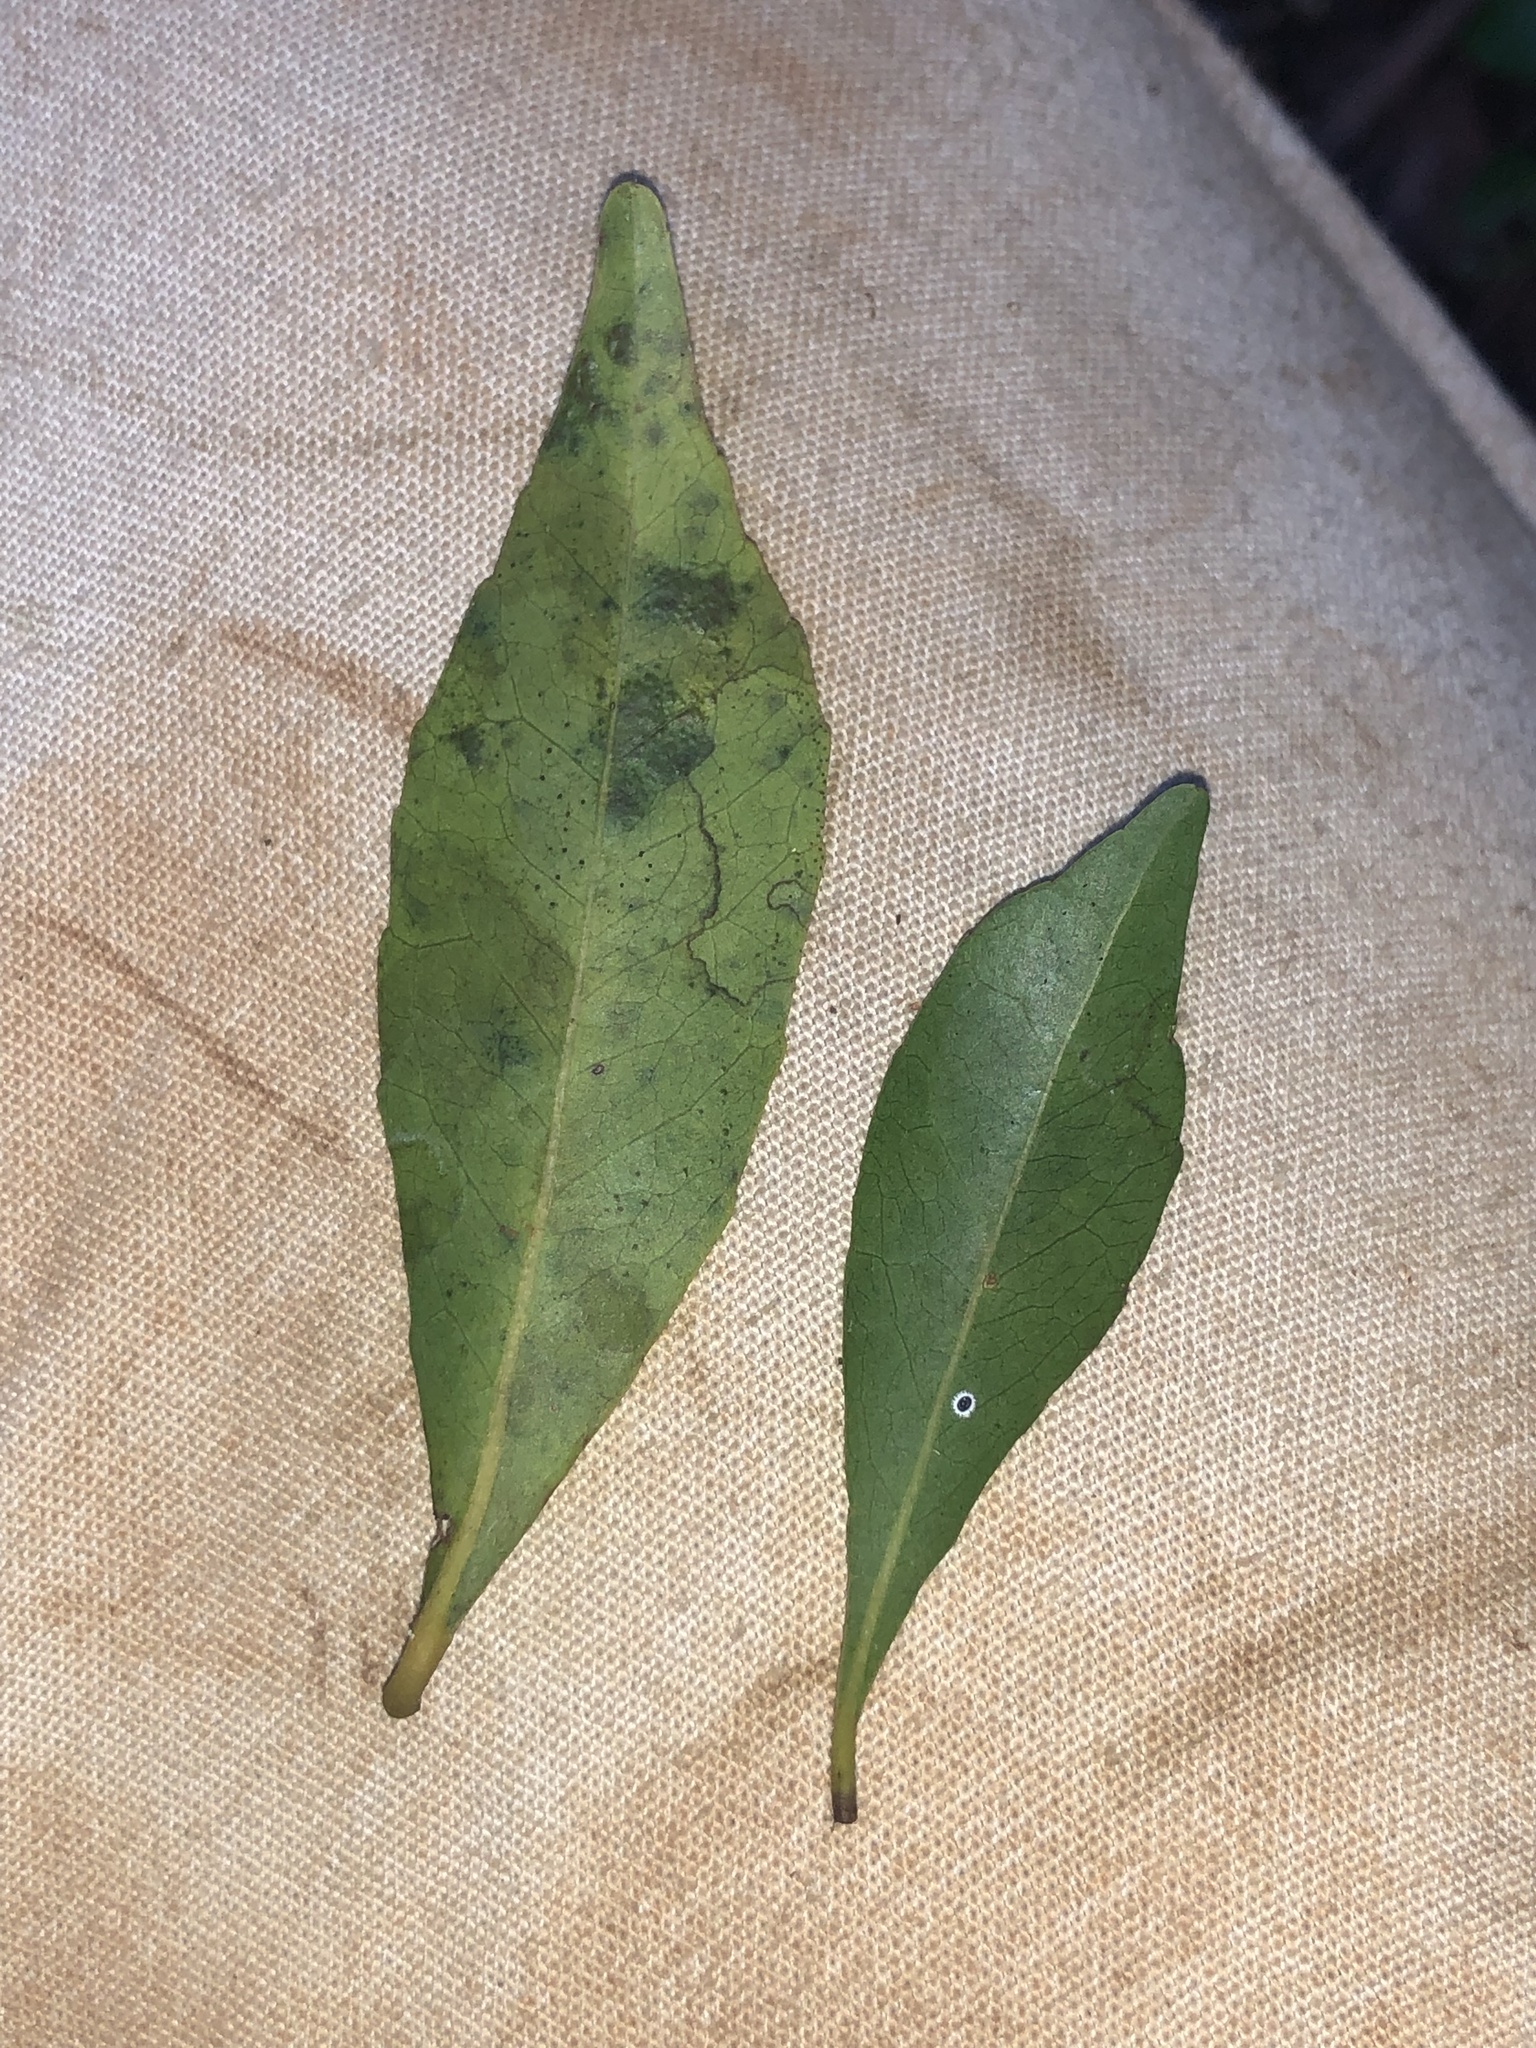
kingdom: Plantae
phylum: Tracheophyta
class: Magnoliopsida
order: Oxalidales
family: Elaeocarpaceae
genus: Elaeocarpus
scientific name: Elaeocarpus obovatus
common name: Freckled oliveberry
